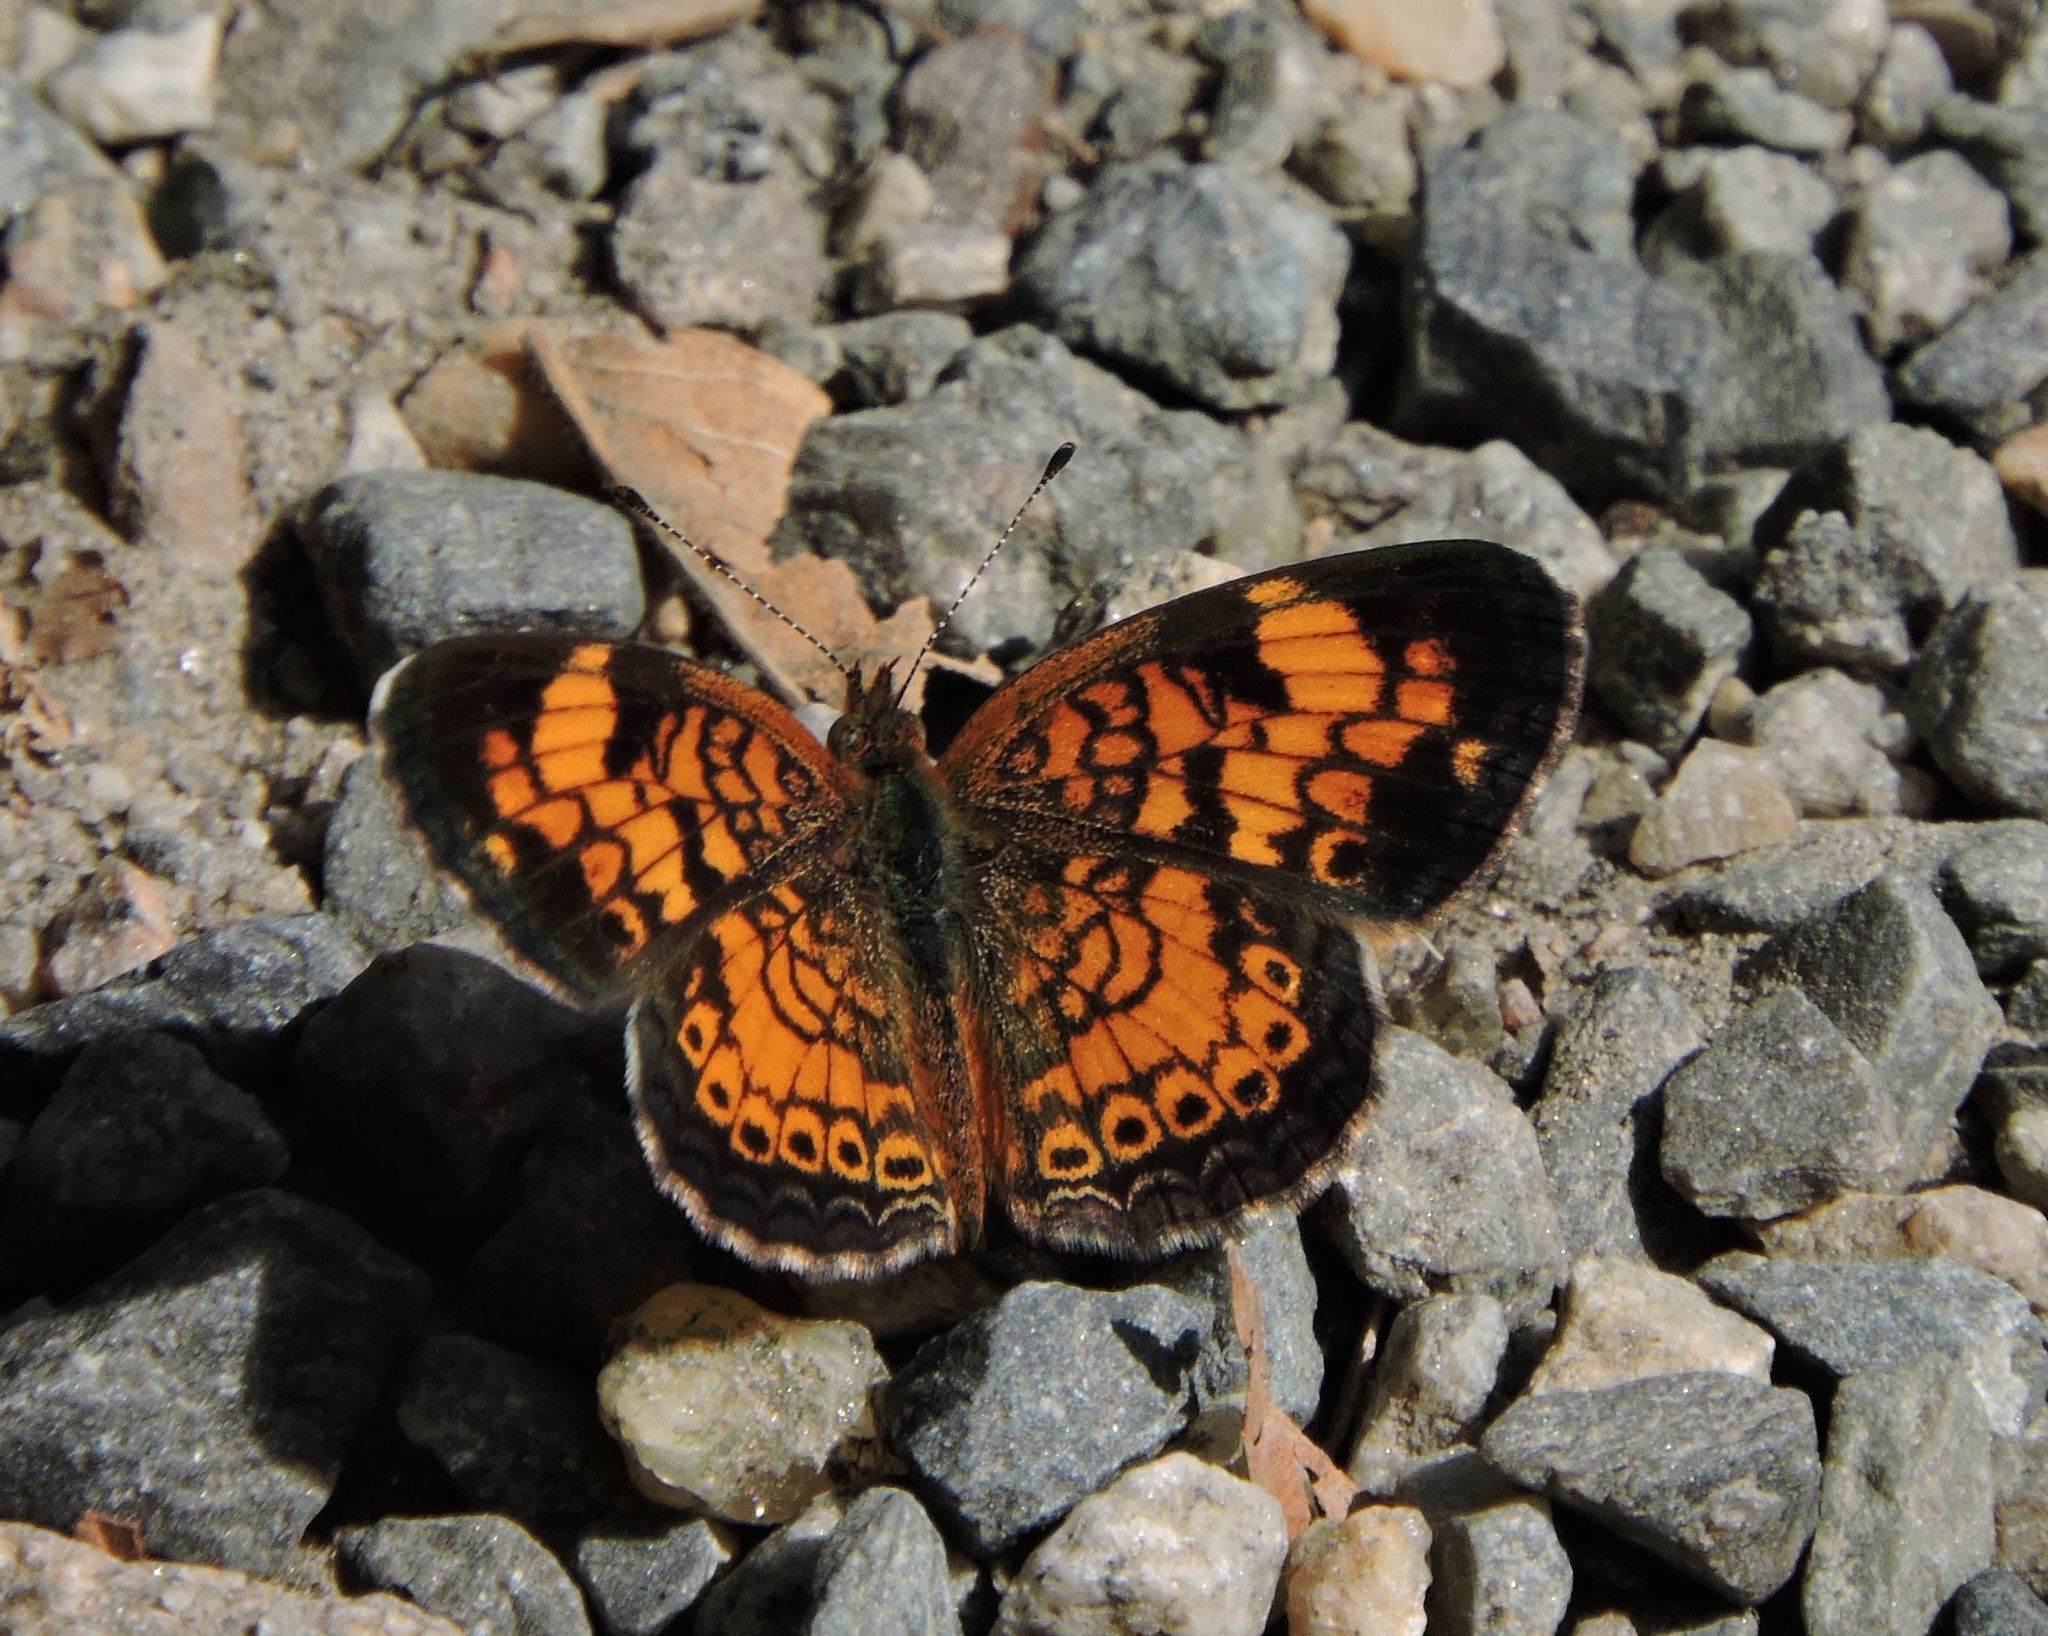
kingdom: Animalia
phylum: Arthropoda
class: Insecta
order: Lepidoptera
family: Nymphalidae
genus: Phyciodes
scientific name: Phyciodes tharos
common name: Pearl crescent
